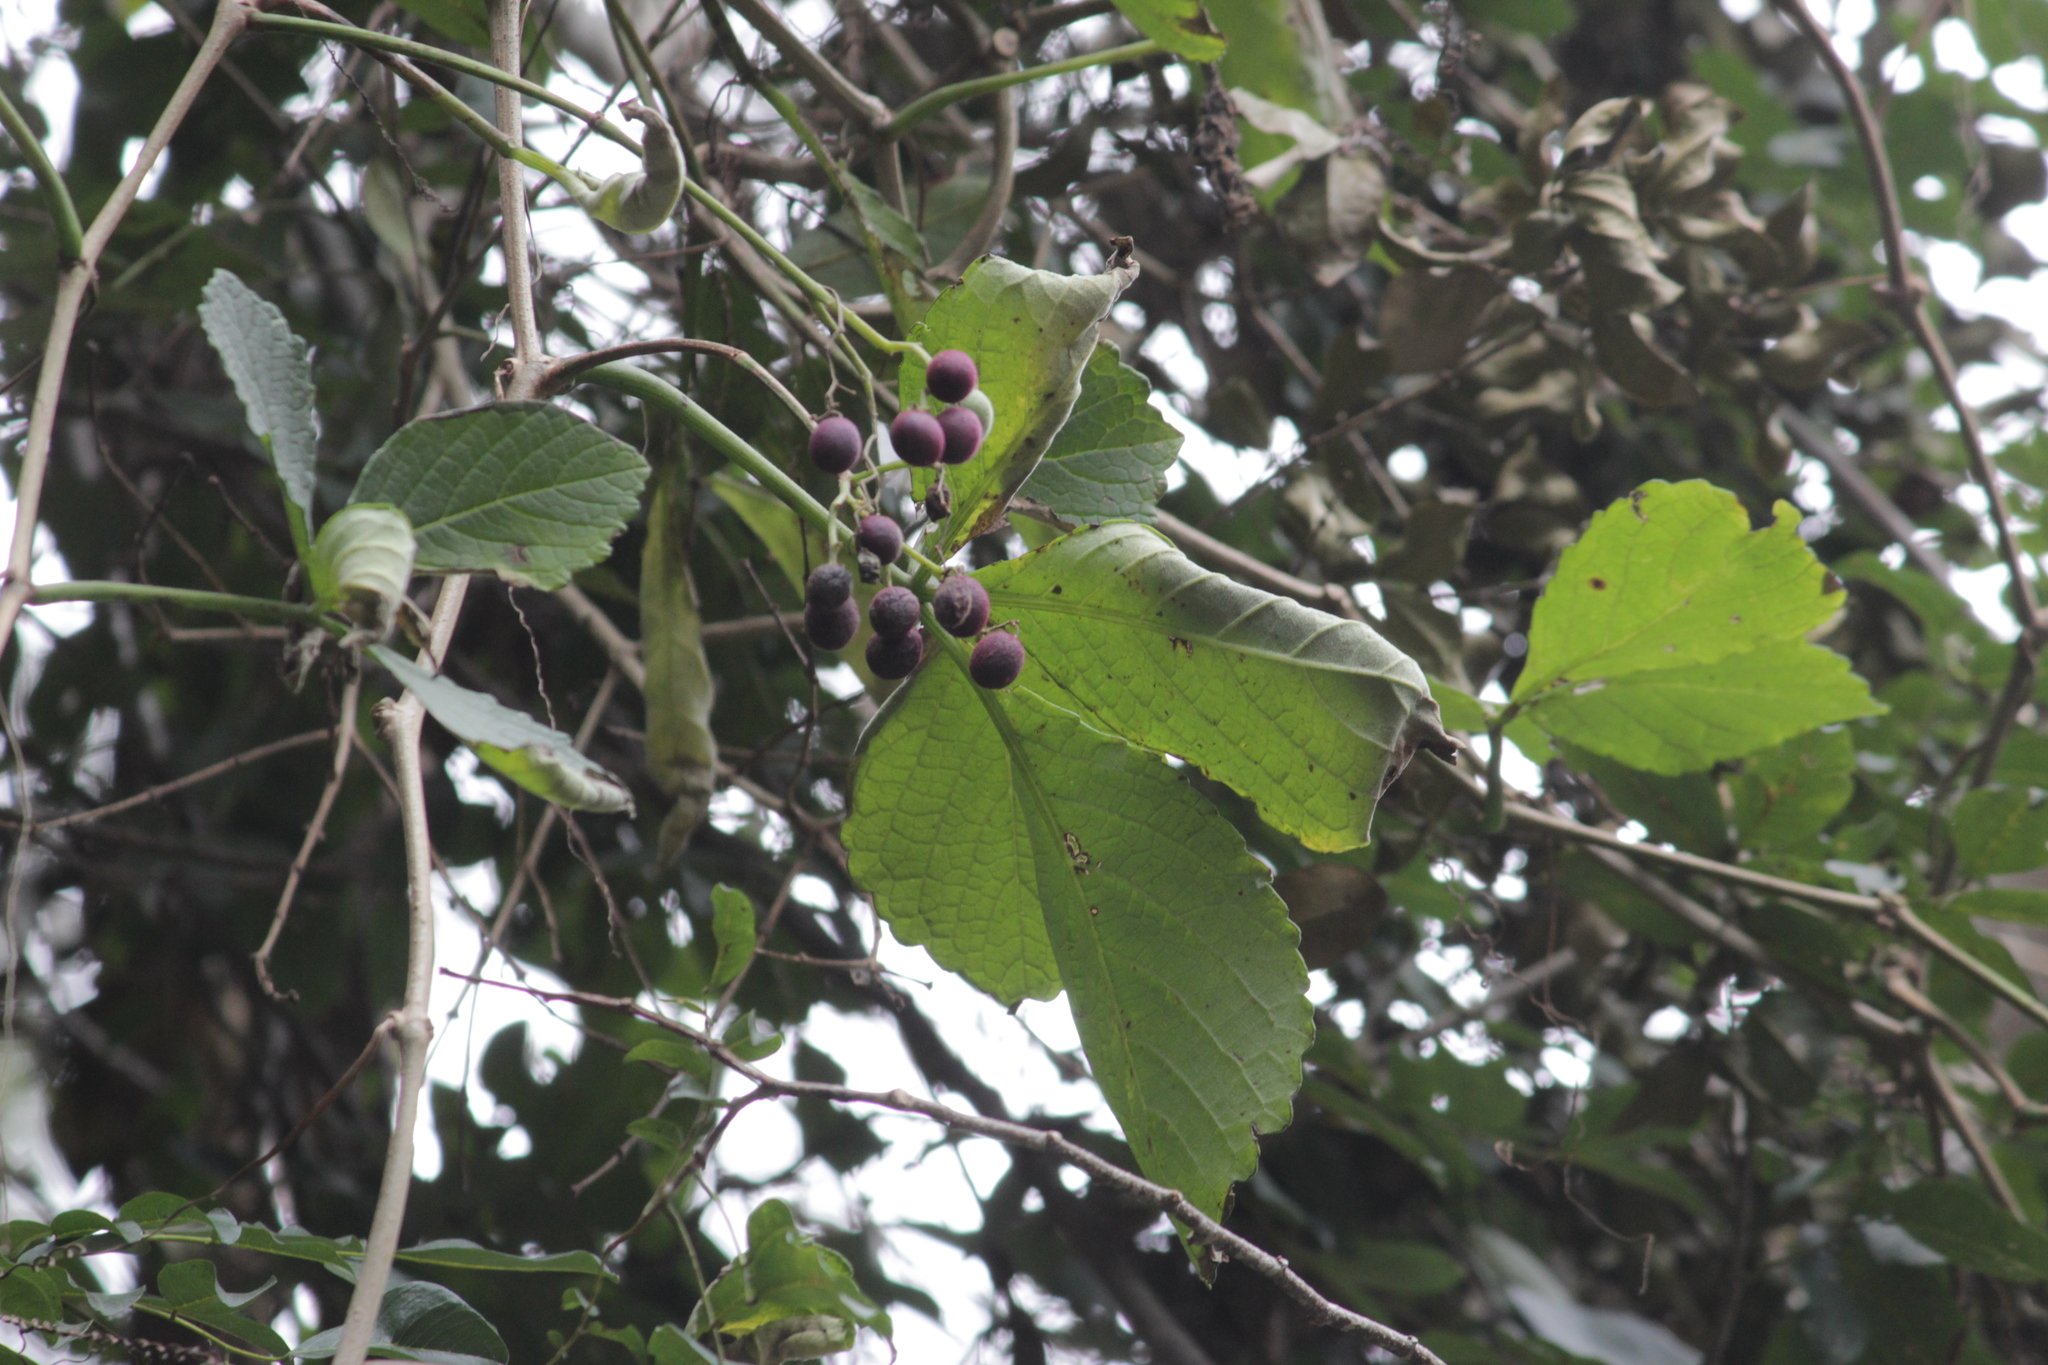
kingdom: Plantae
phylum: Tracheophyta
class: Magnoliopsida
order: Vitales
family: Vitaceae
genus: Cyphostemma
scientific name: Cyphostemma hypoleucum
